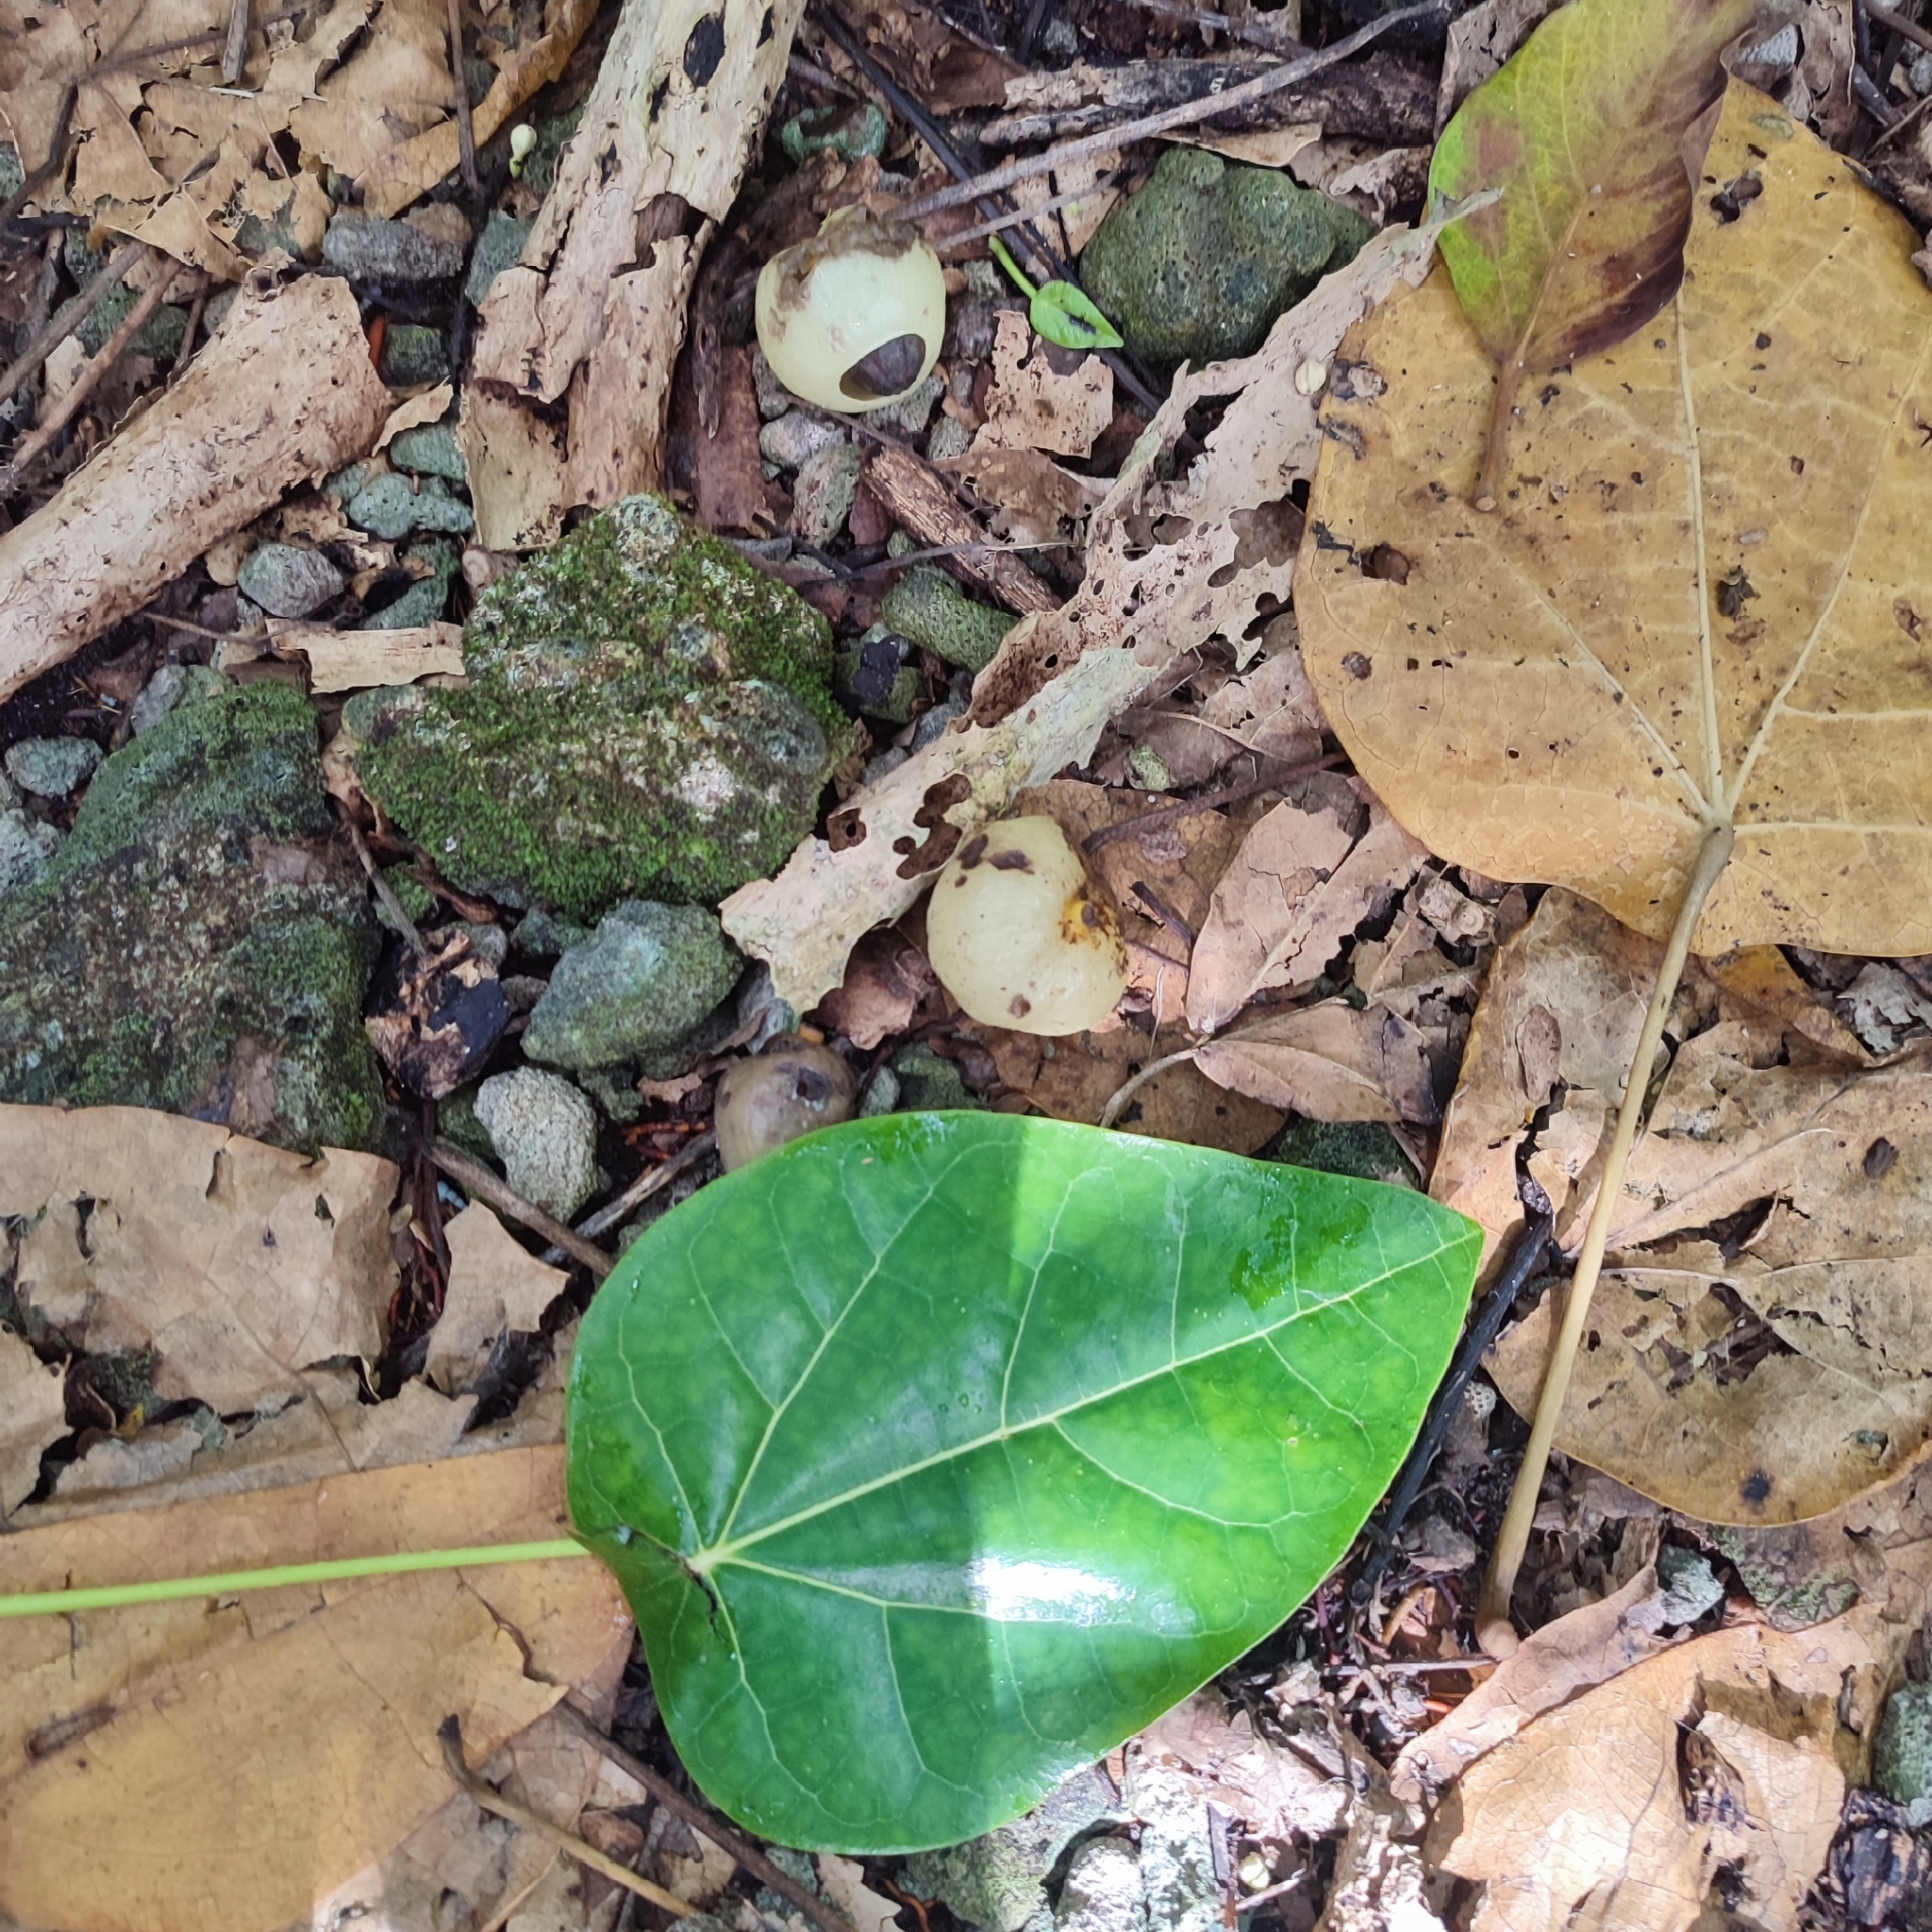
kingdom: Plantae
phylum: Tracheophyta
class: Magnoliopsida
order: Laurales
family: Hernandiaceae
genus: Hernandia
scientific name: Hernandia nymphaeifolia
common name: Sea hearse
